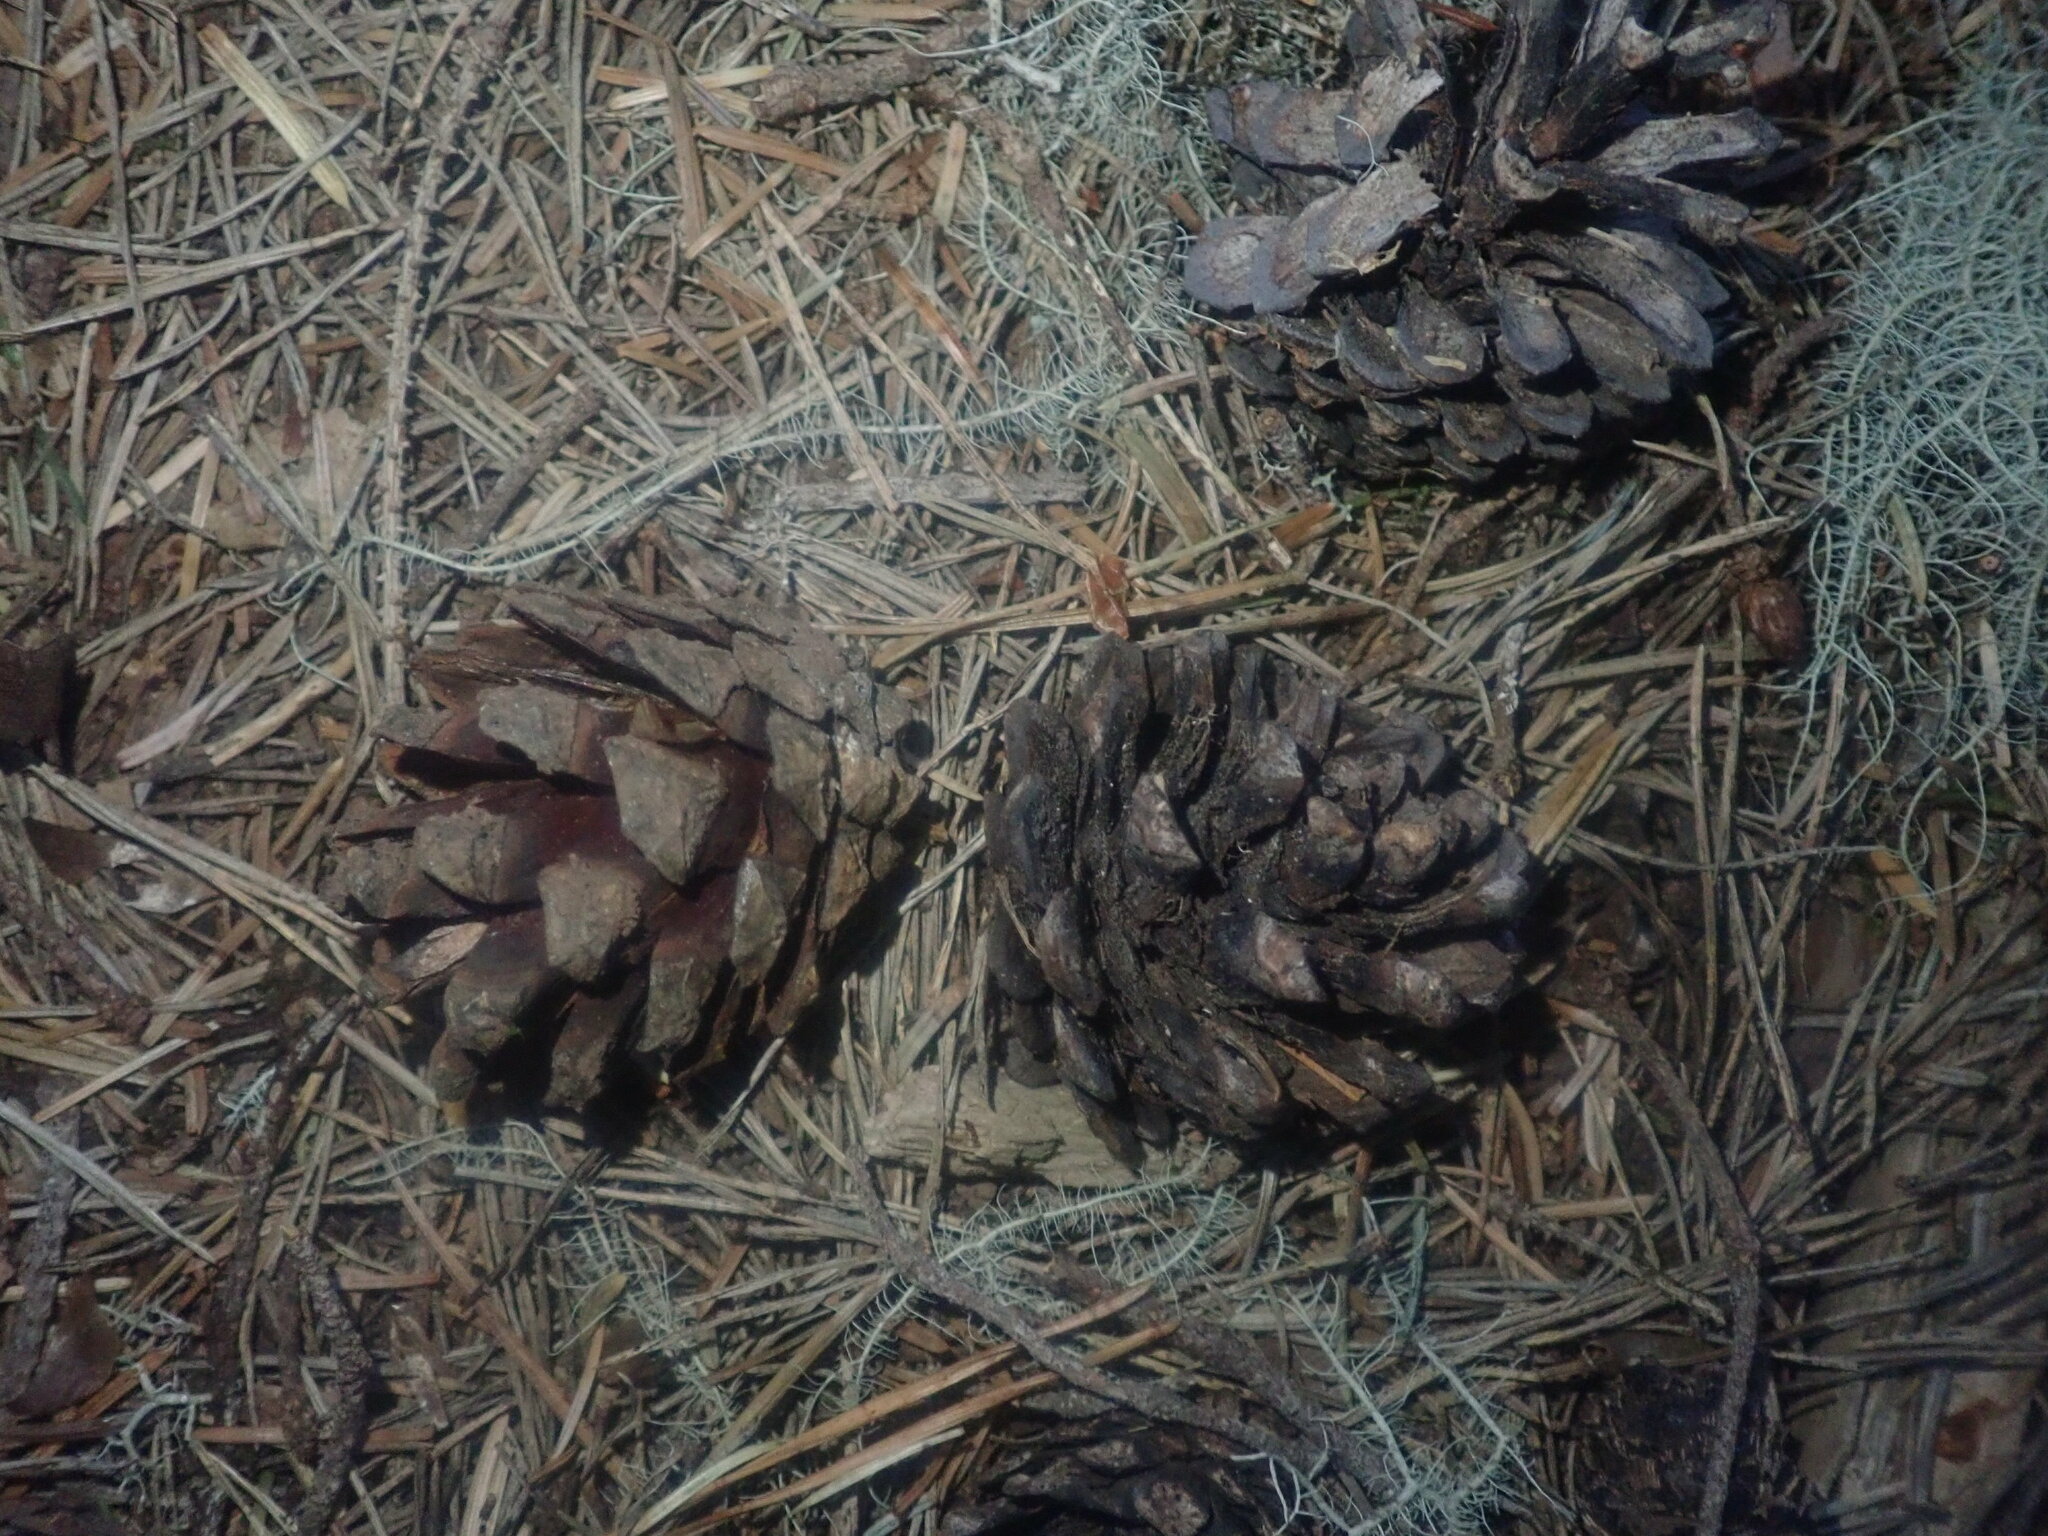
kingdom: Plantae
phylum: Tracheophyta
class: Pinopsida
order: Pinales
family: Pinaceae
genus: Pinus
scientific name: Pinus pinaster
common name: Maritime pine
